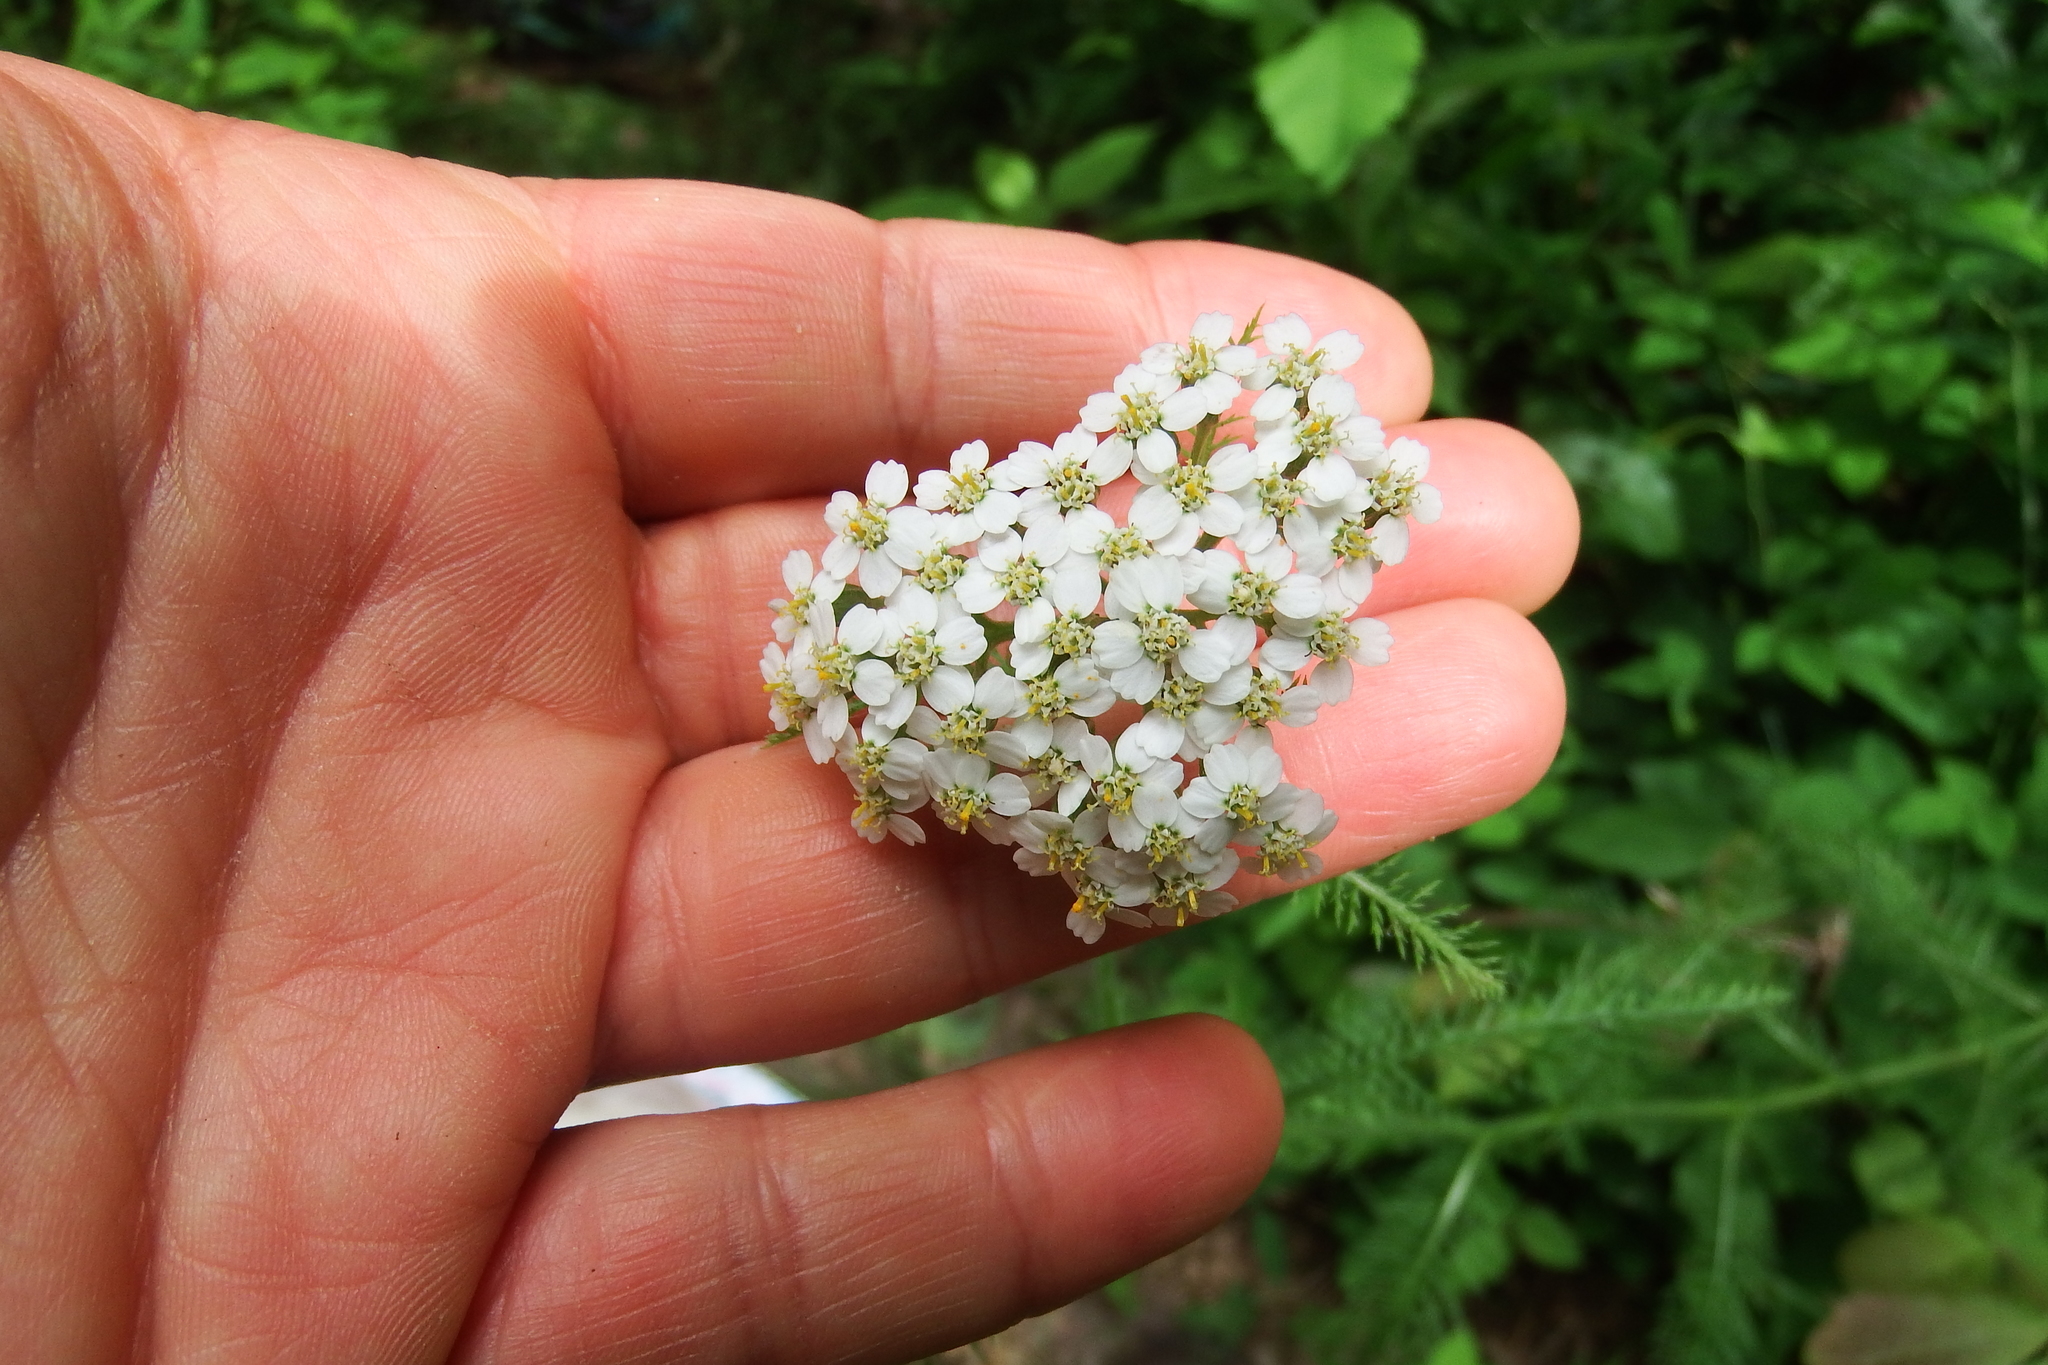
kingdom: Plantae
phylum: Tracheophyta
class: Magnoliopsida
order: Asterales
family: Asteraceae
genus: Achillea
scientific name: Achillea millefolium
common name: Yarrow
